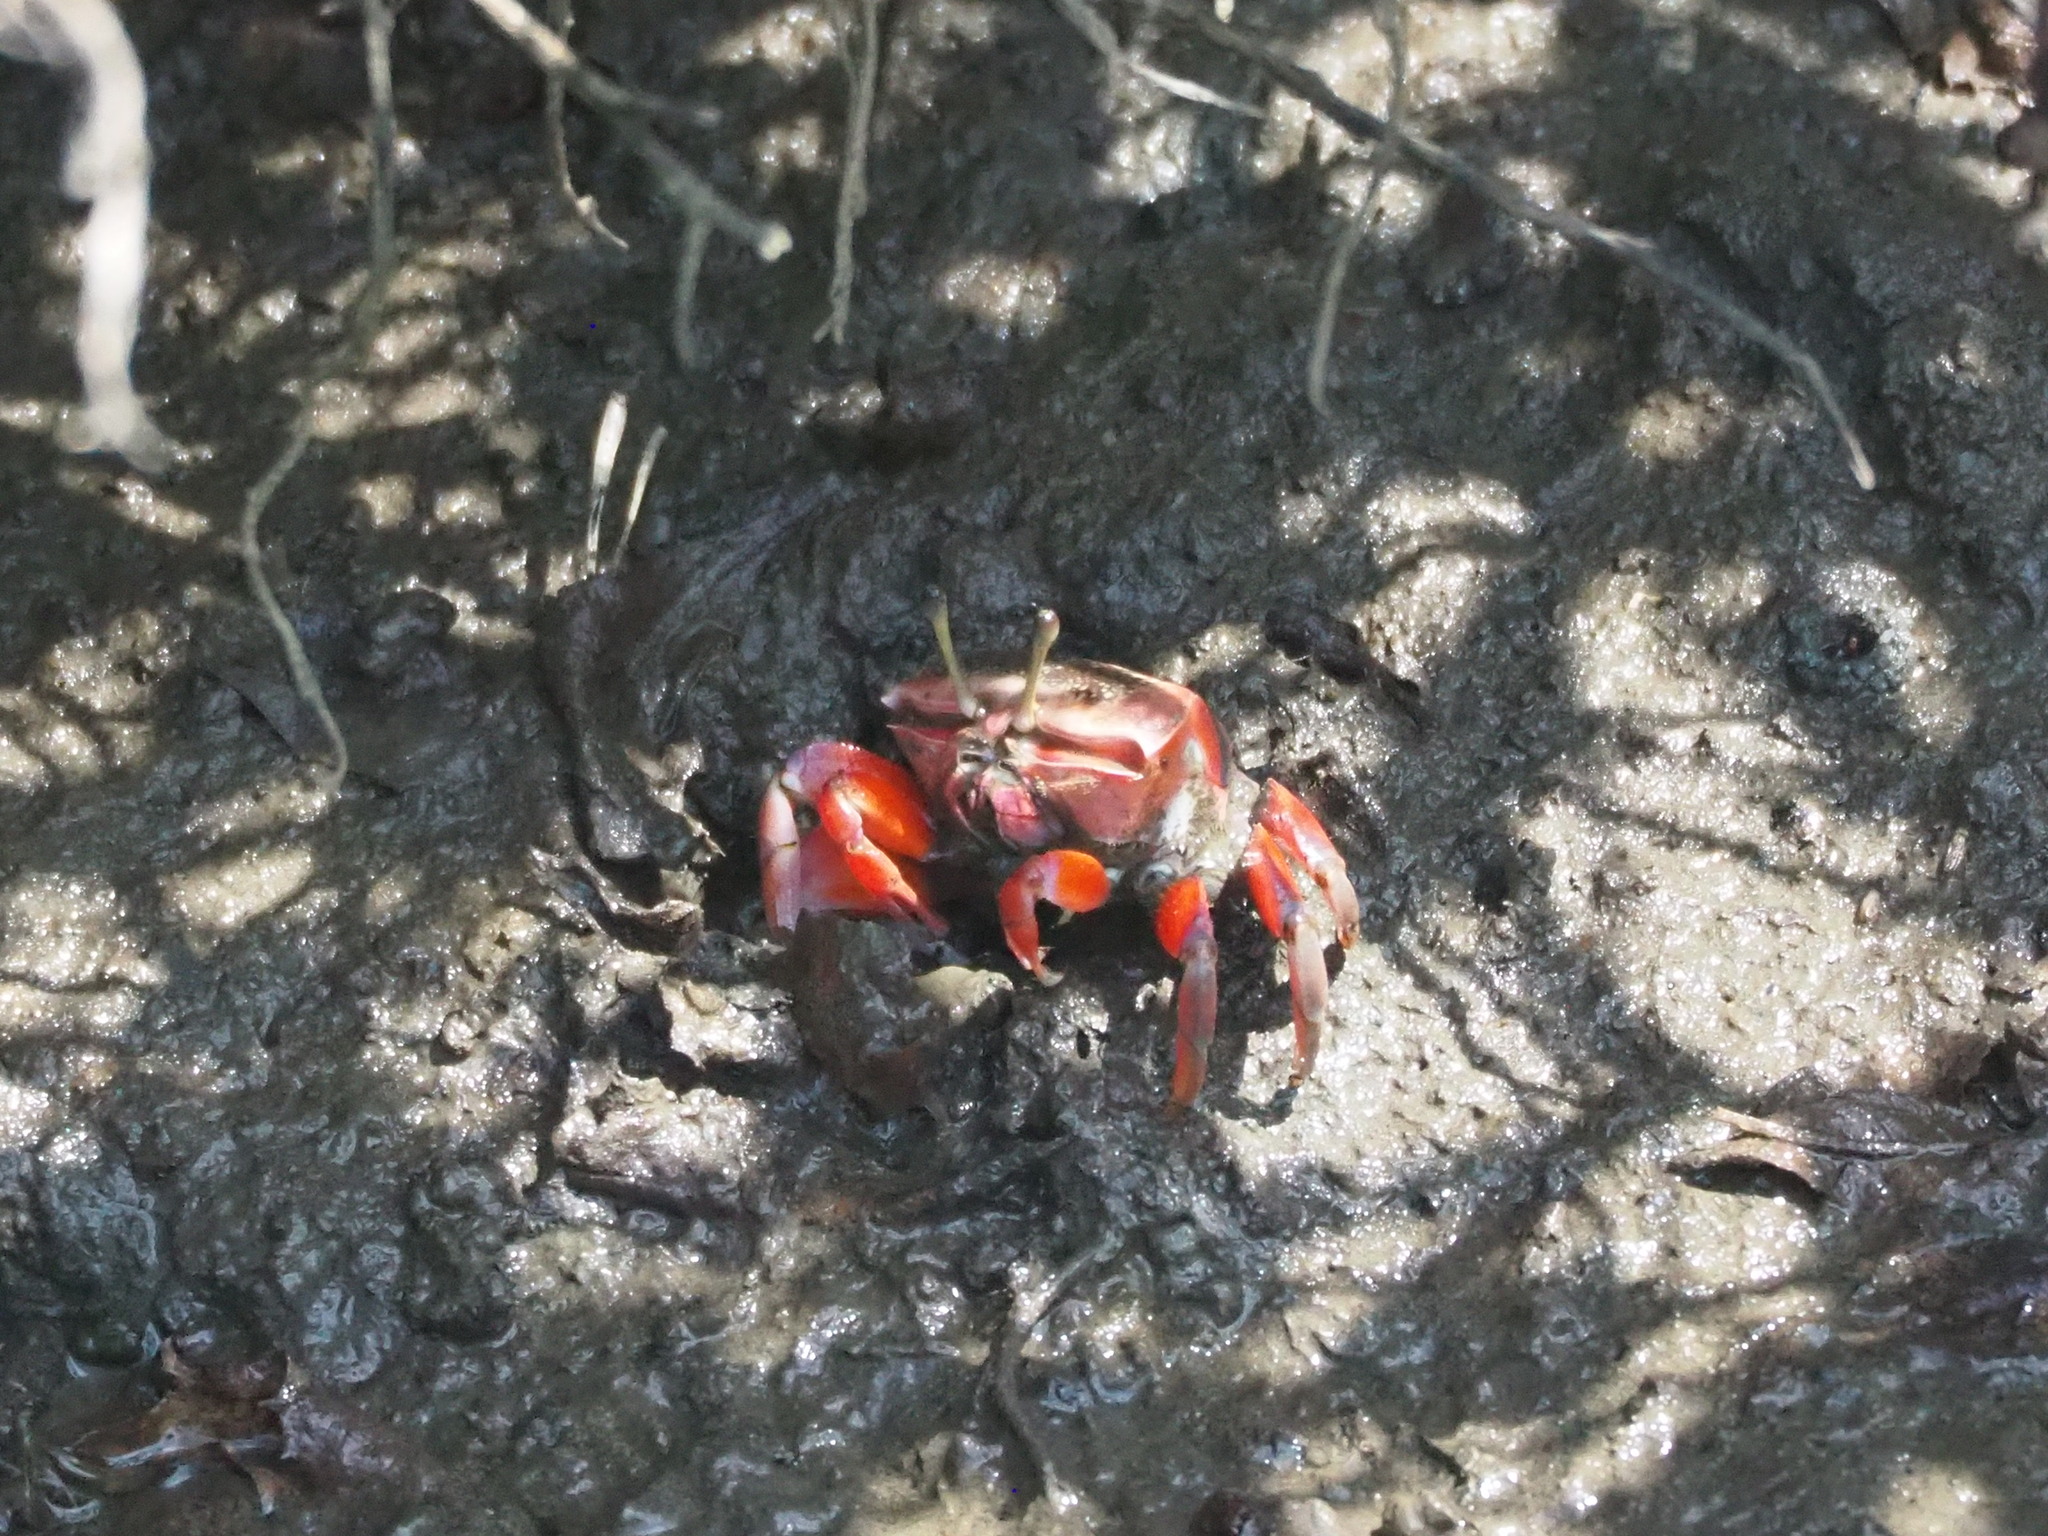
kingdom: Animalia
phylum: Arthropoda
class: Malacostraca
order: Decapoda
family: Ocypodidae
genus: Tubuca
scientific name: Tubuca arcuata
